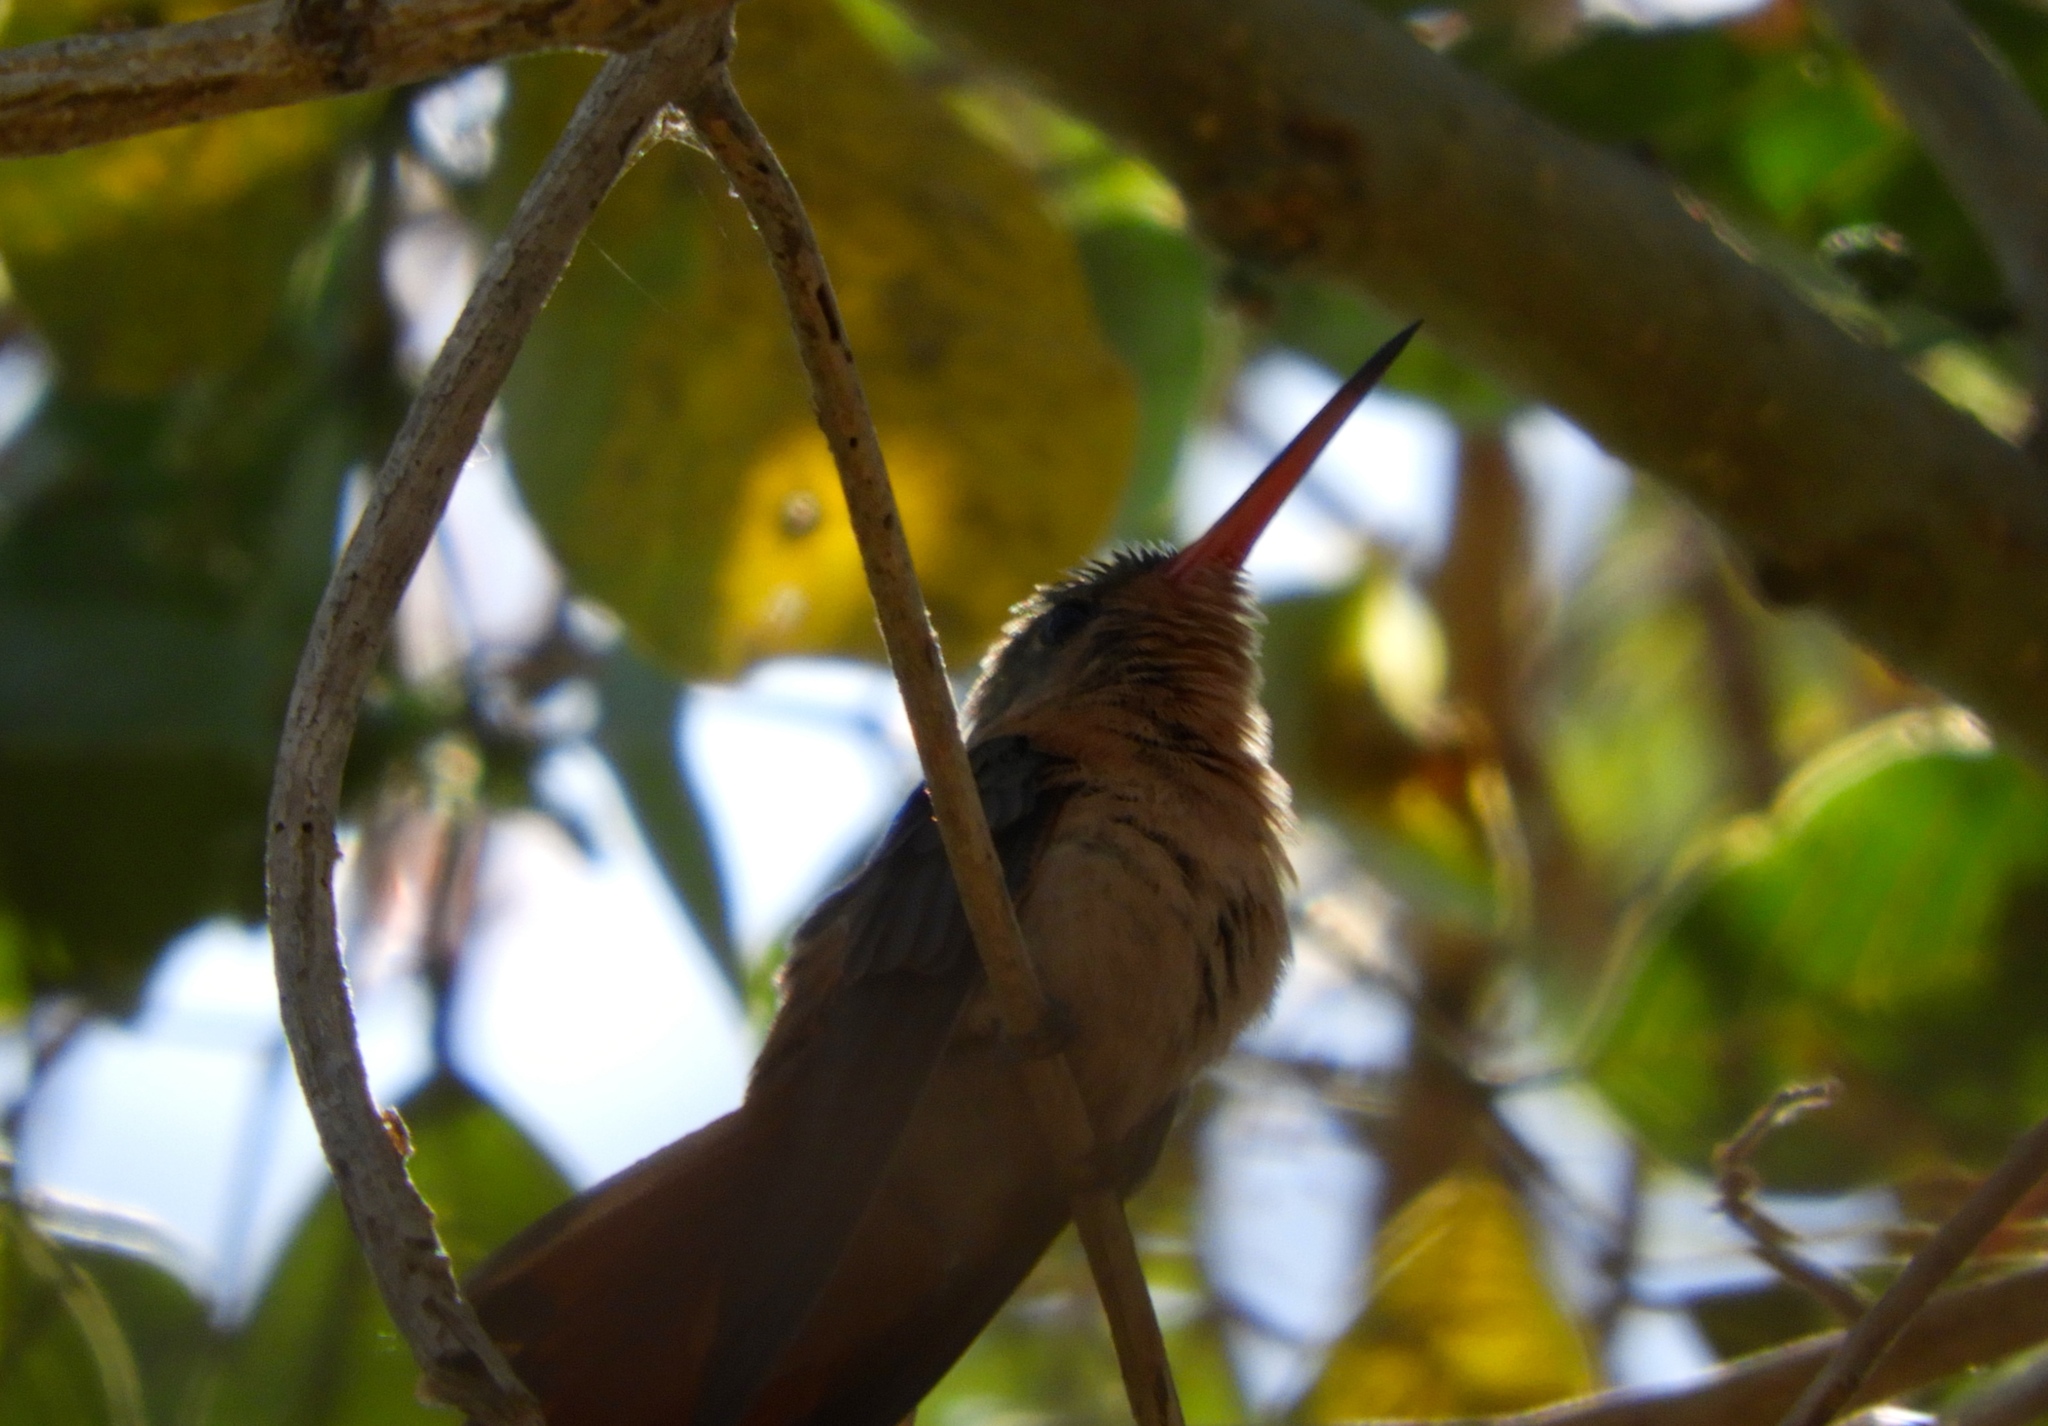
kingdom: Animalia
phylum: Chordata
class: Aves
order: Apodiformes
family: Trochilidae
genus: Amazilia
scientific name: Amazilia rutila
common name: Cinnamon hummingbird
